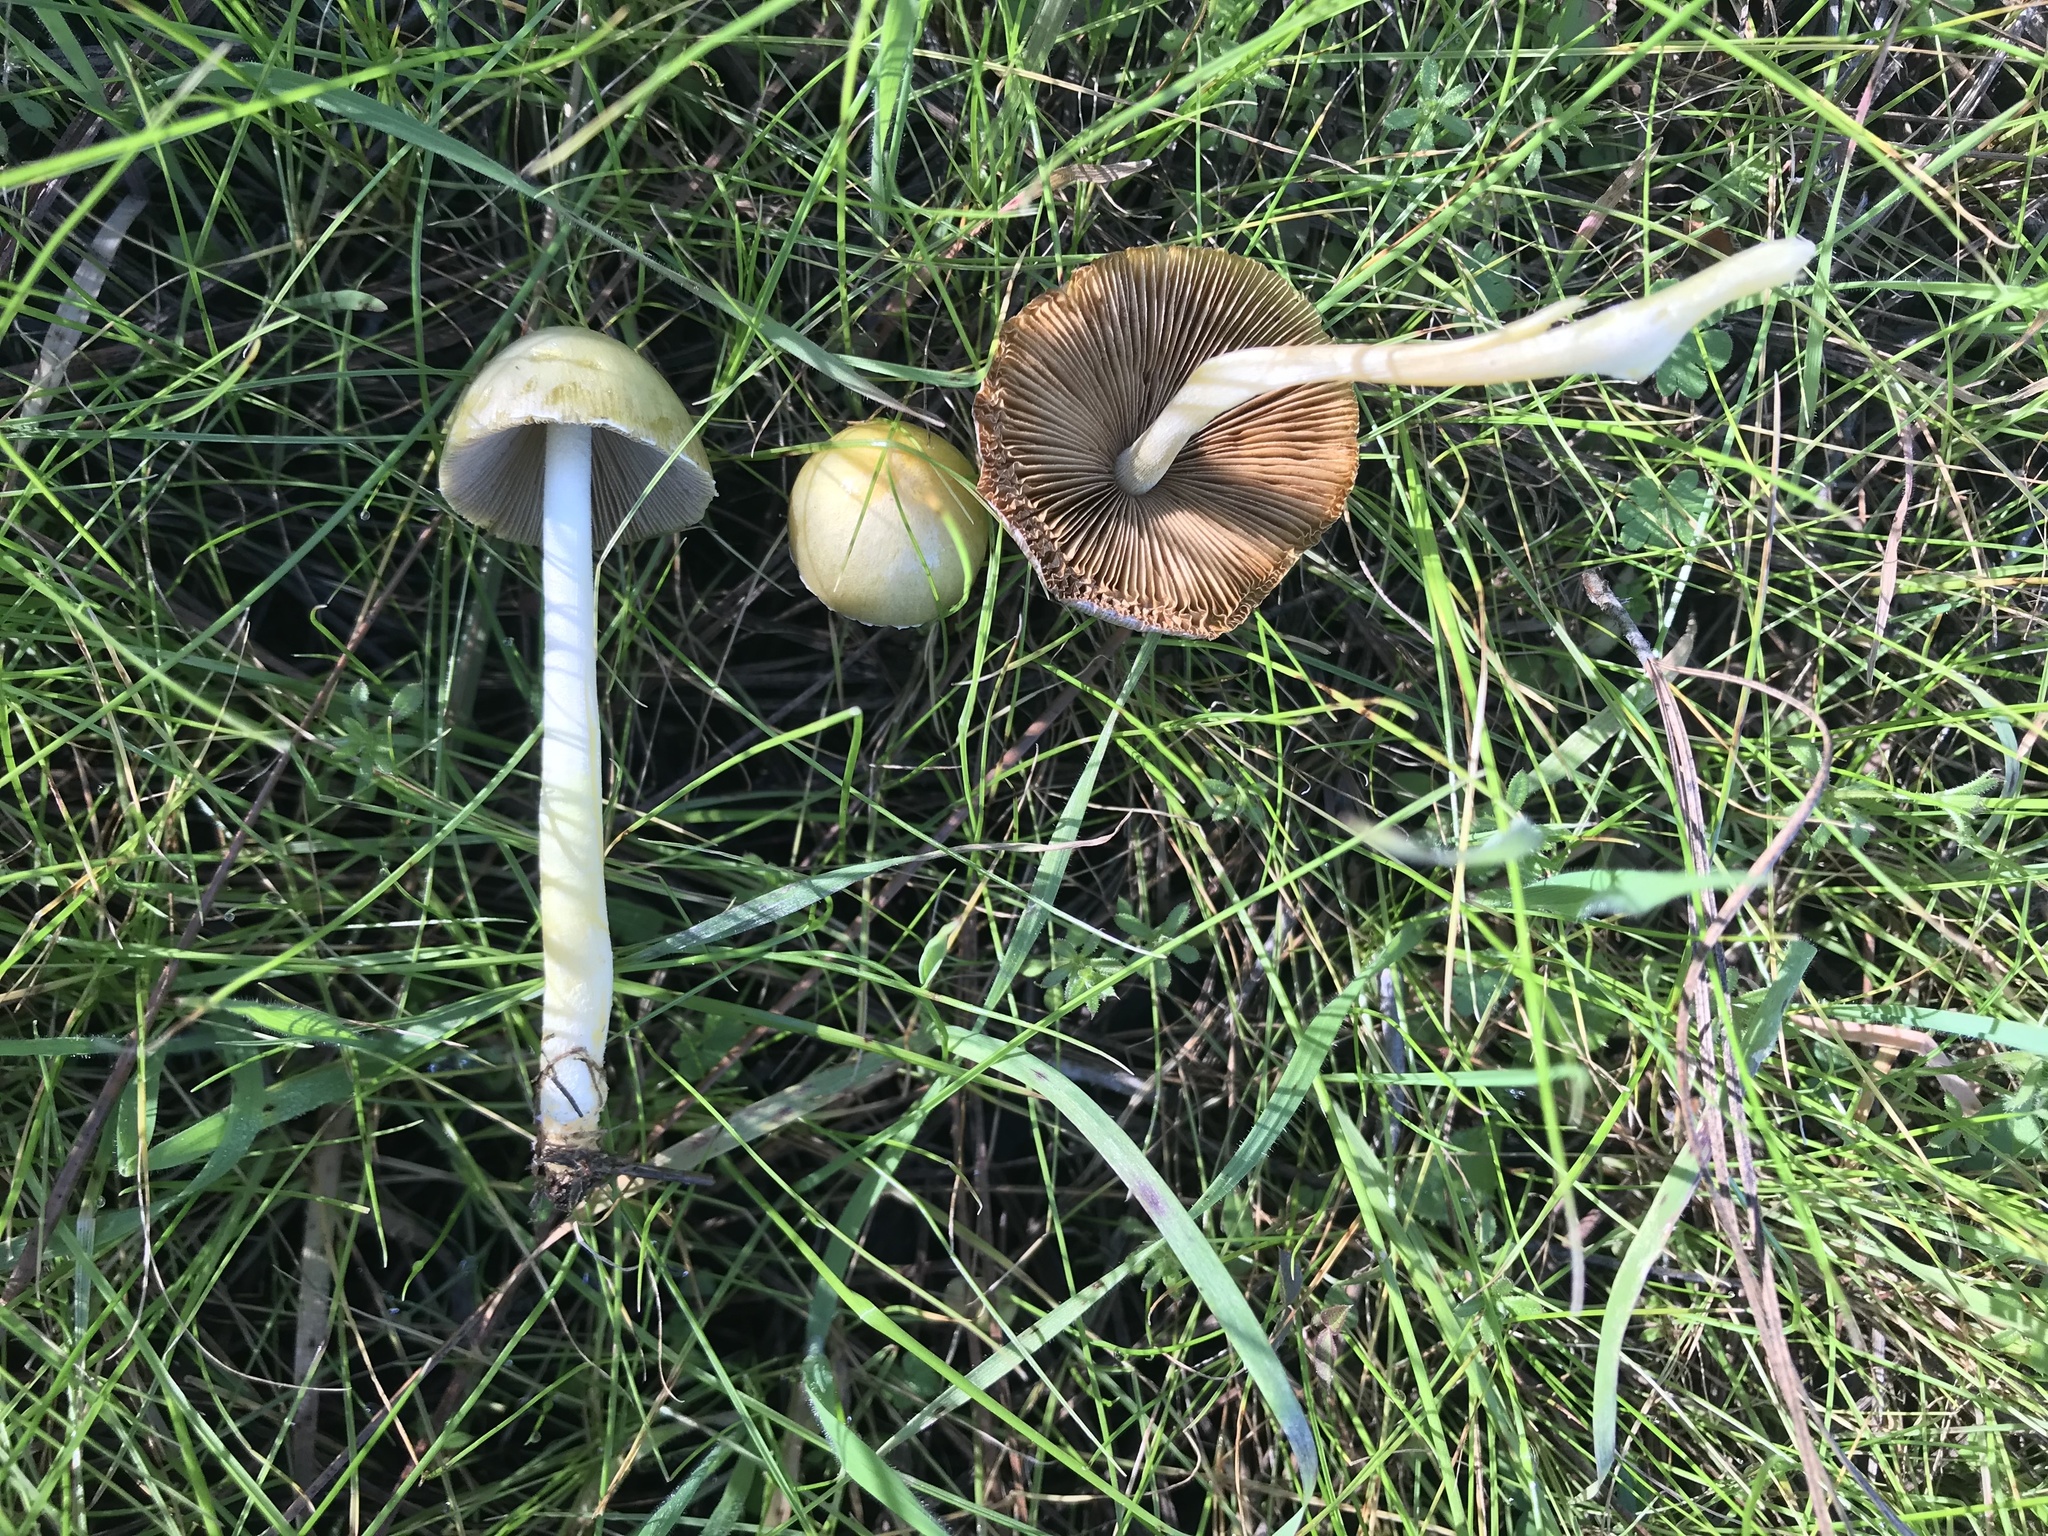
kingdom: Fungi
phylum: Basidiomycota
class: Agaricomycetes
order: Agaricales
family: Bolbitiaceae
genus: Bolbitius
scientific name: Bolbitius titubans
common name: Yellow fieldcap
